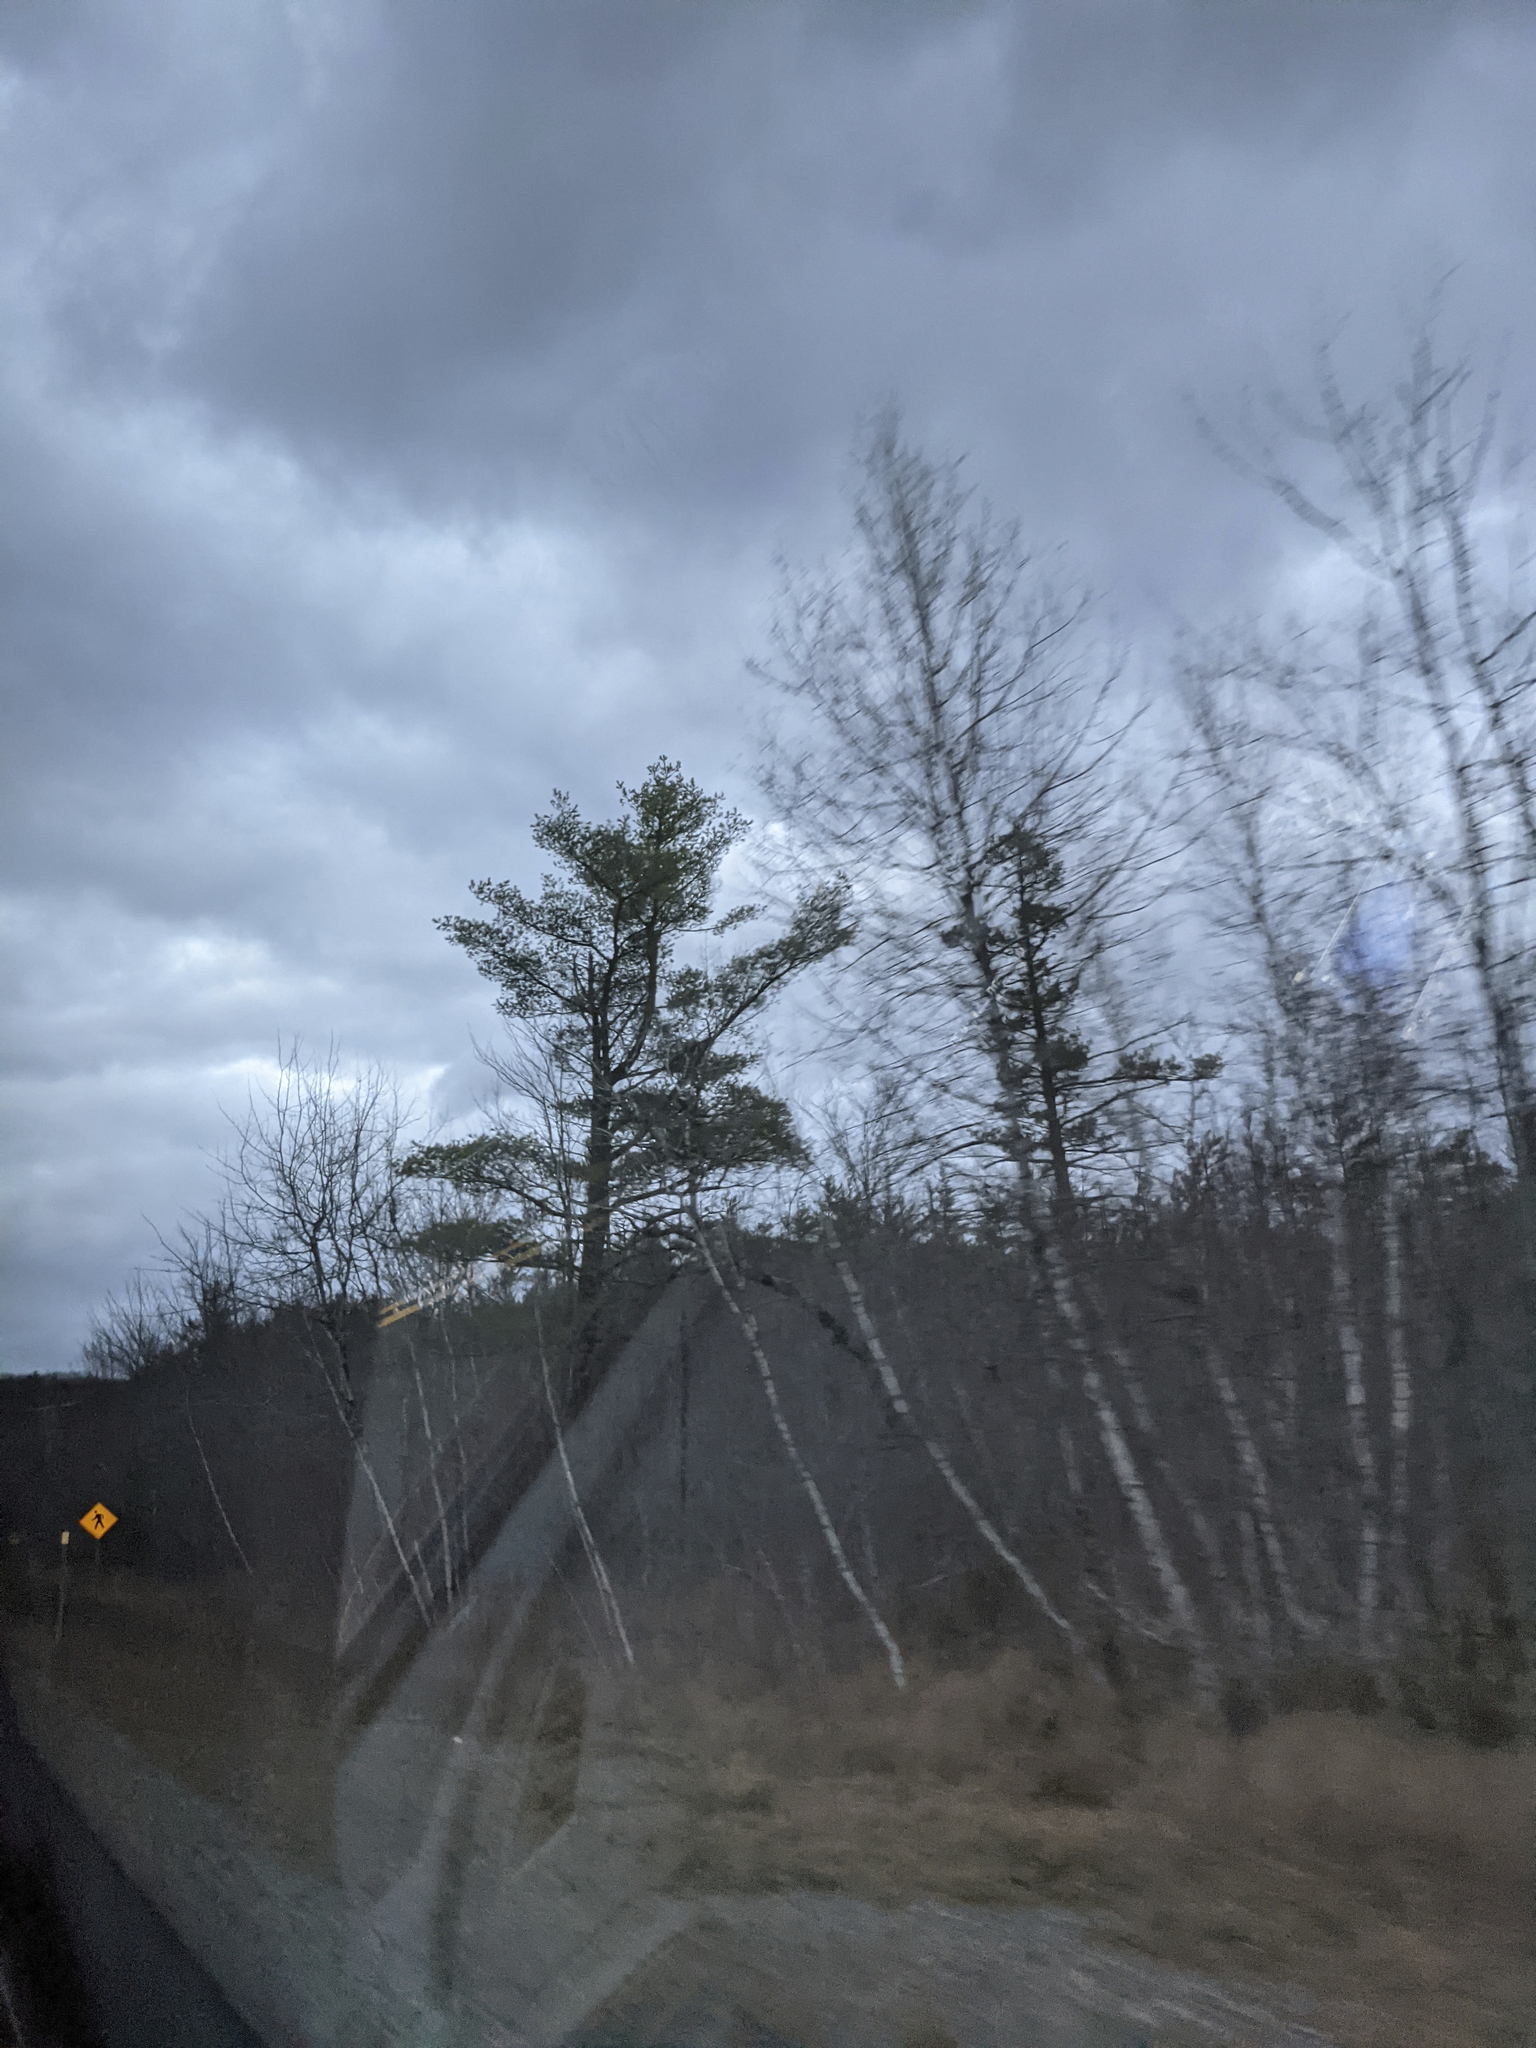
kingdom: Plantae
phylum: Tracheophyta
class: Pinopsida
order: Pinales
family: Pinaceae
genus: Pinus
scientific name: Pinus strobus
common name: Weymouth pine
